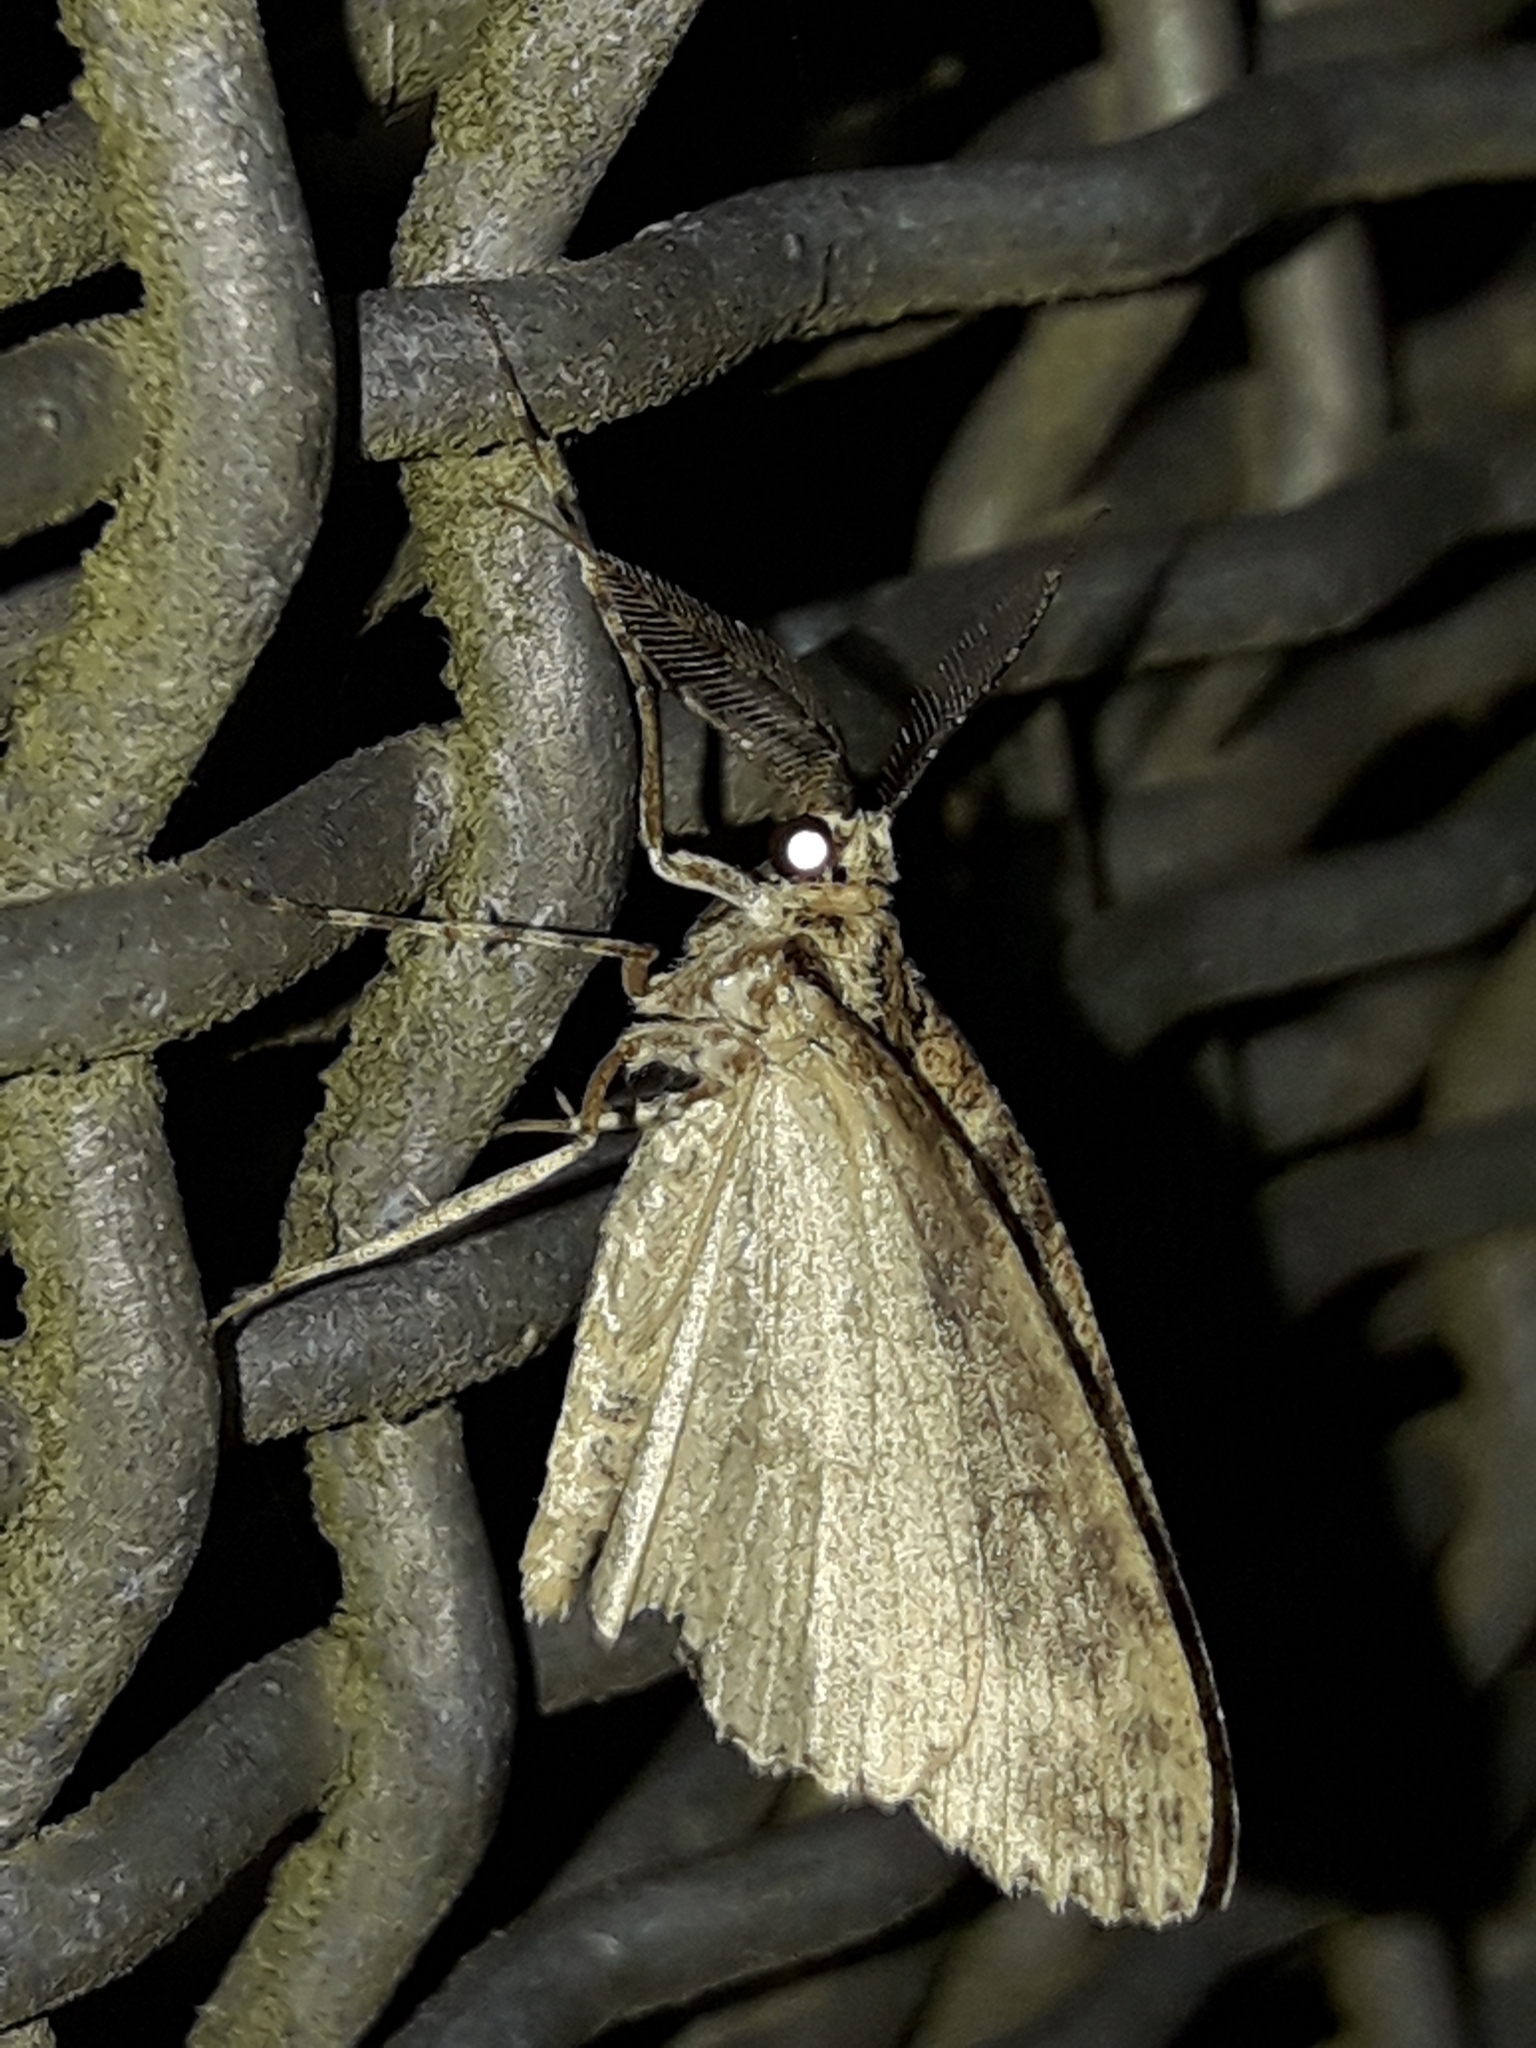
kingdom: Animalia
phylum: Arthropoda
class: Insecta
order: Lepidoptera
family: Geometridae
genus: Pseudocoremia
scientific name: Pseudocoremia rudisata
